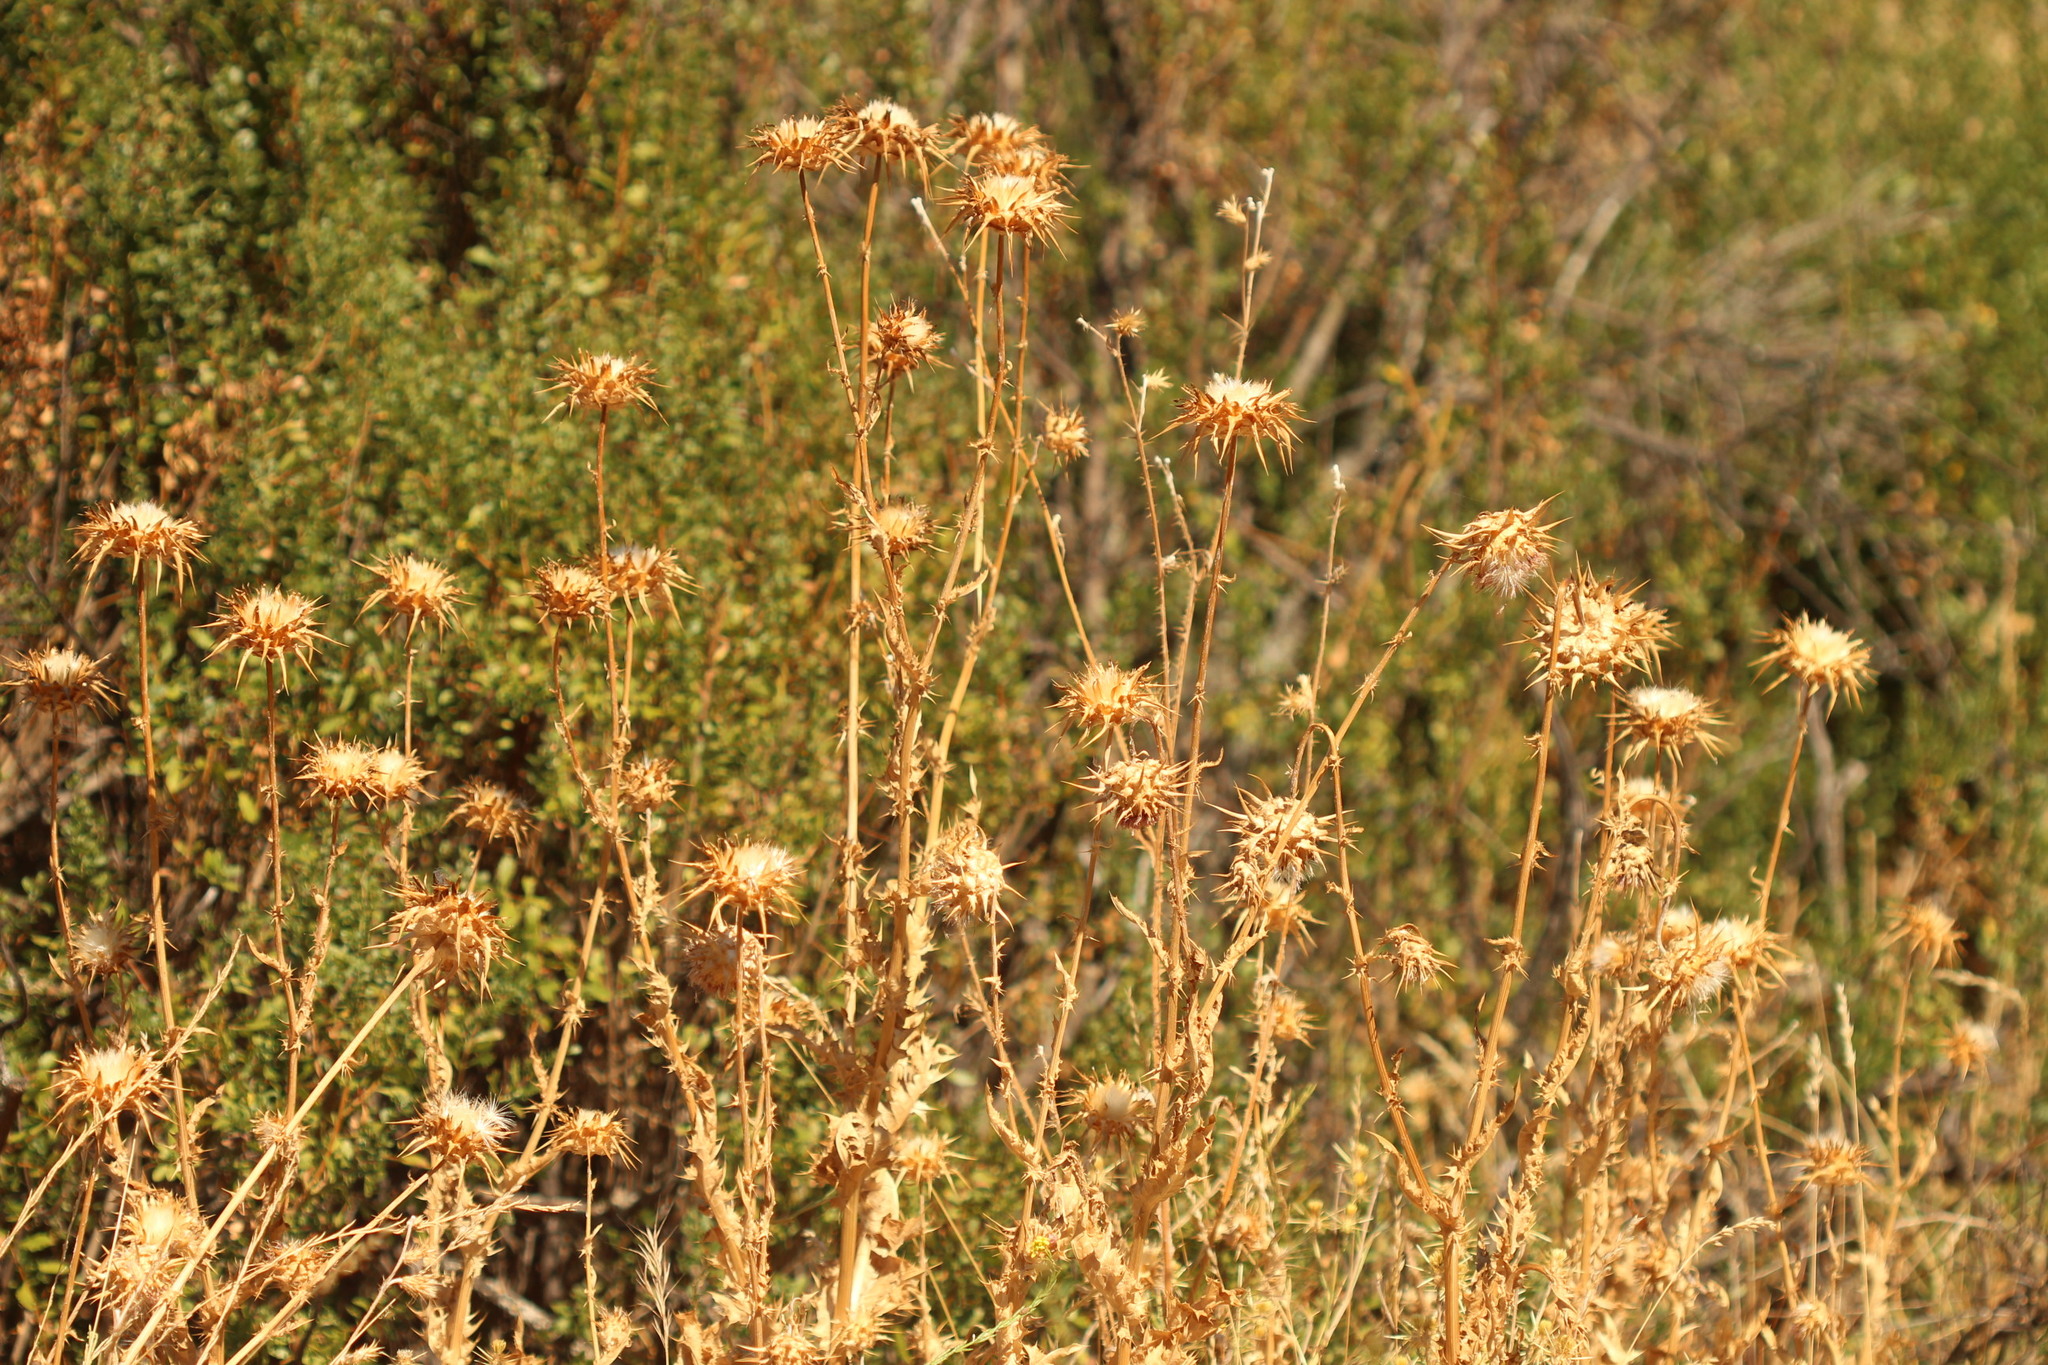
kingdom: Plantae
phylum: Tracheophyta
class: Magnoliopsida
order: Asterales
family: Asteraceae
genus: Silybum
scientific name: Silybum marianum
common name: Milk thistle
